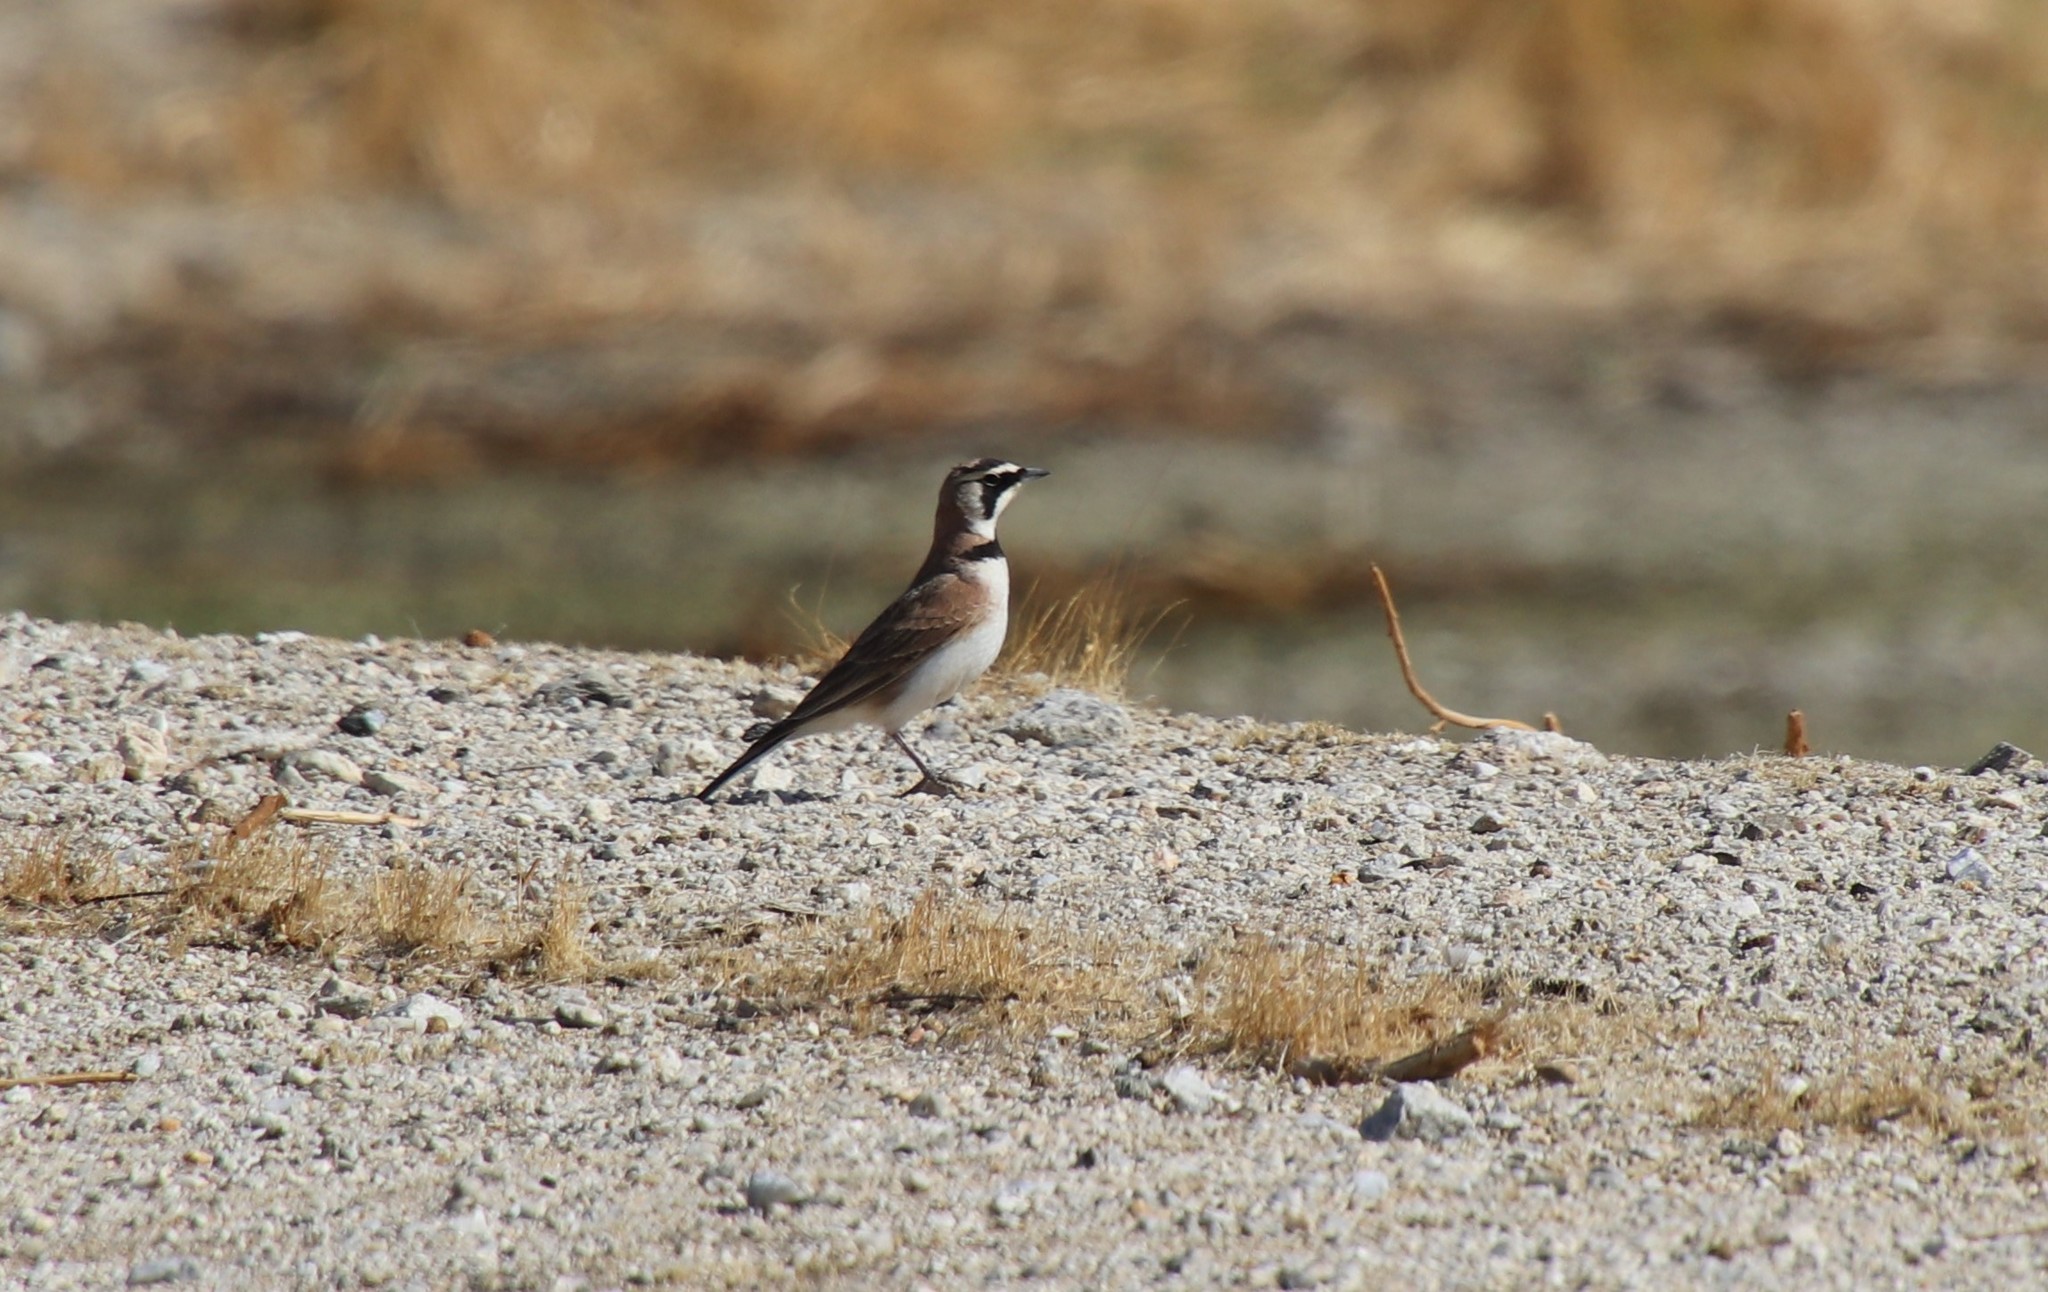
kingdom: Animalia
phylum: Chordata
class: Aves
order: Passeriformes
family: Alaudidae
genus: Eremophila
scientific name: Eremophila alpestris
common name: Horned lark
